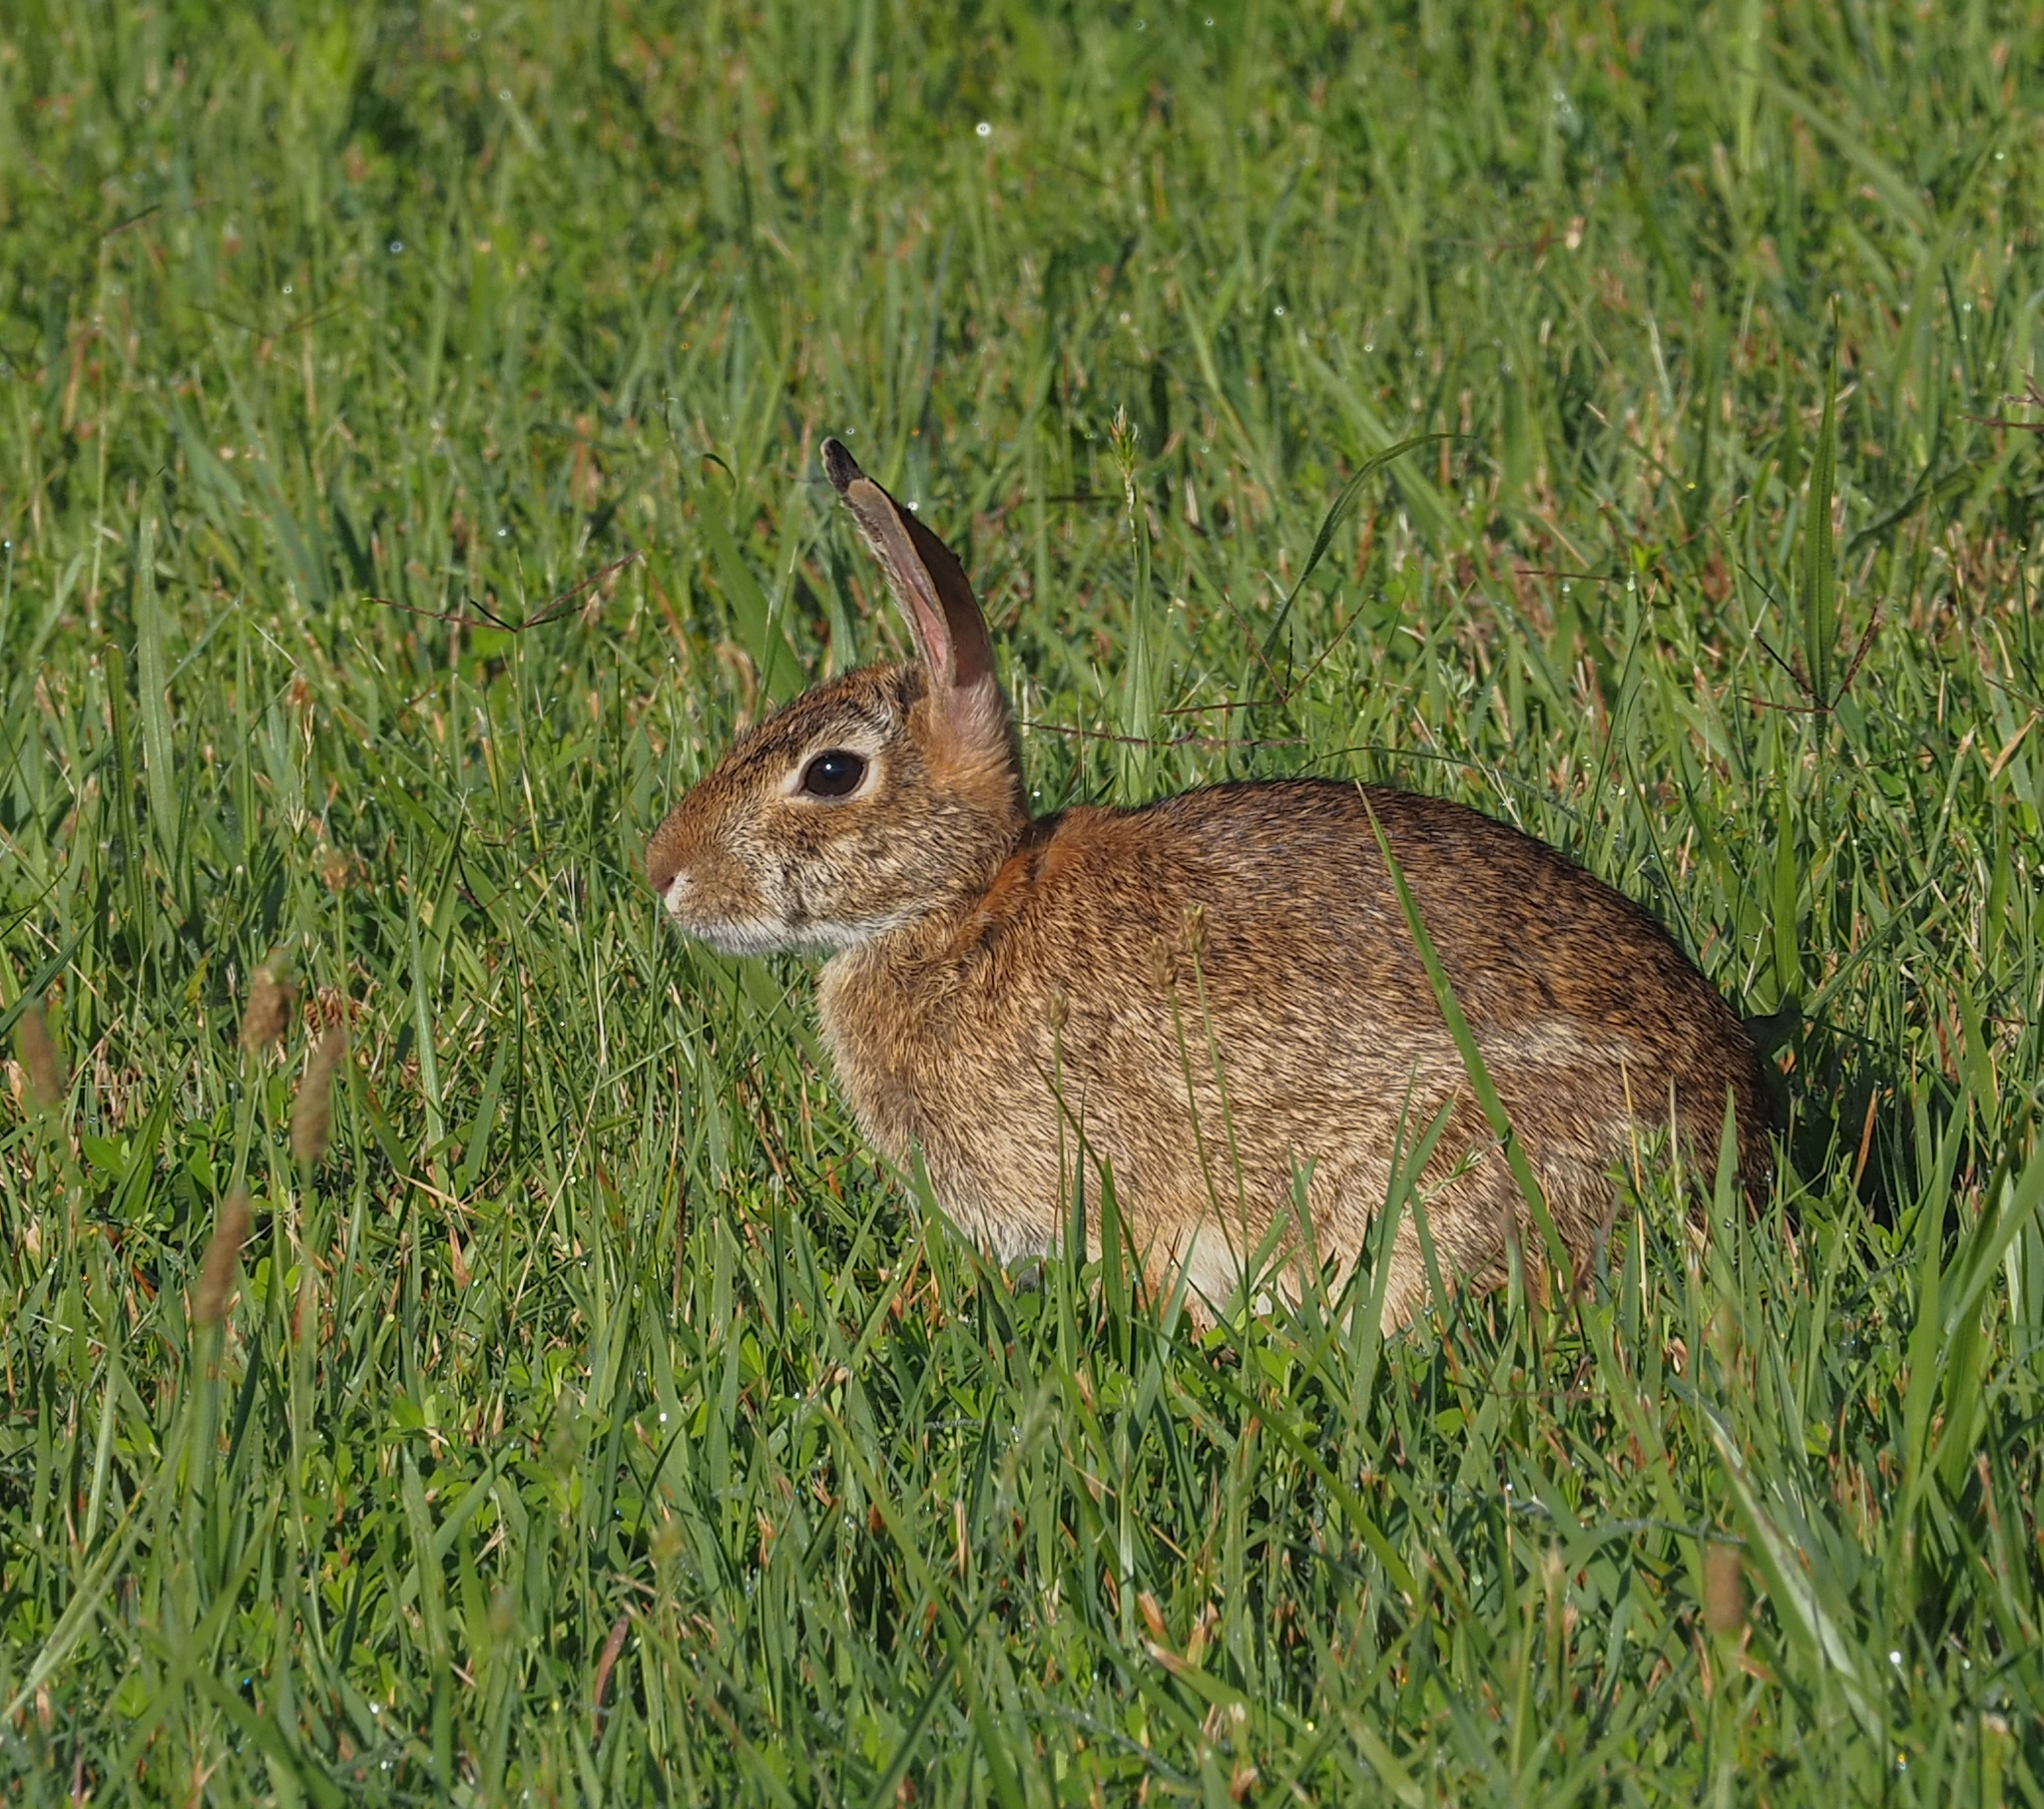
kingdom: Animalia
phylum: Chordata
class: Mammalia
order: Lagomorpha
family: Leporidae
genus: Sylvilagus
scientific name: Sylvilagus floridanus
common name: Eastern cottontail
